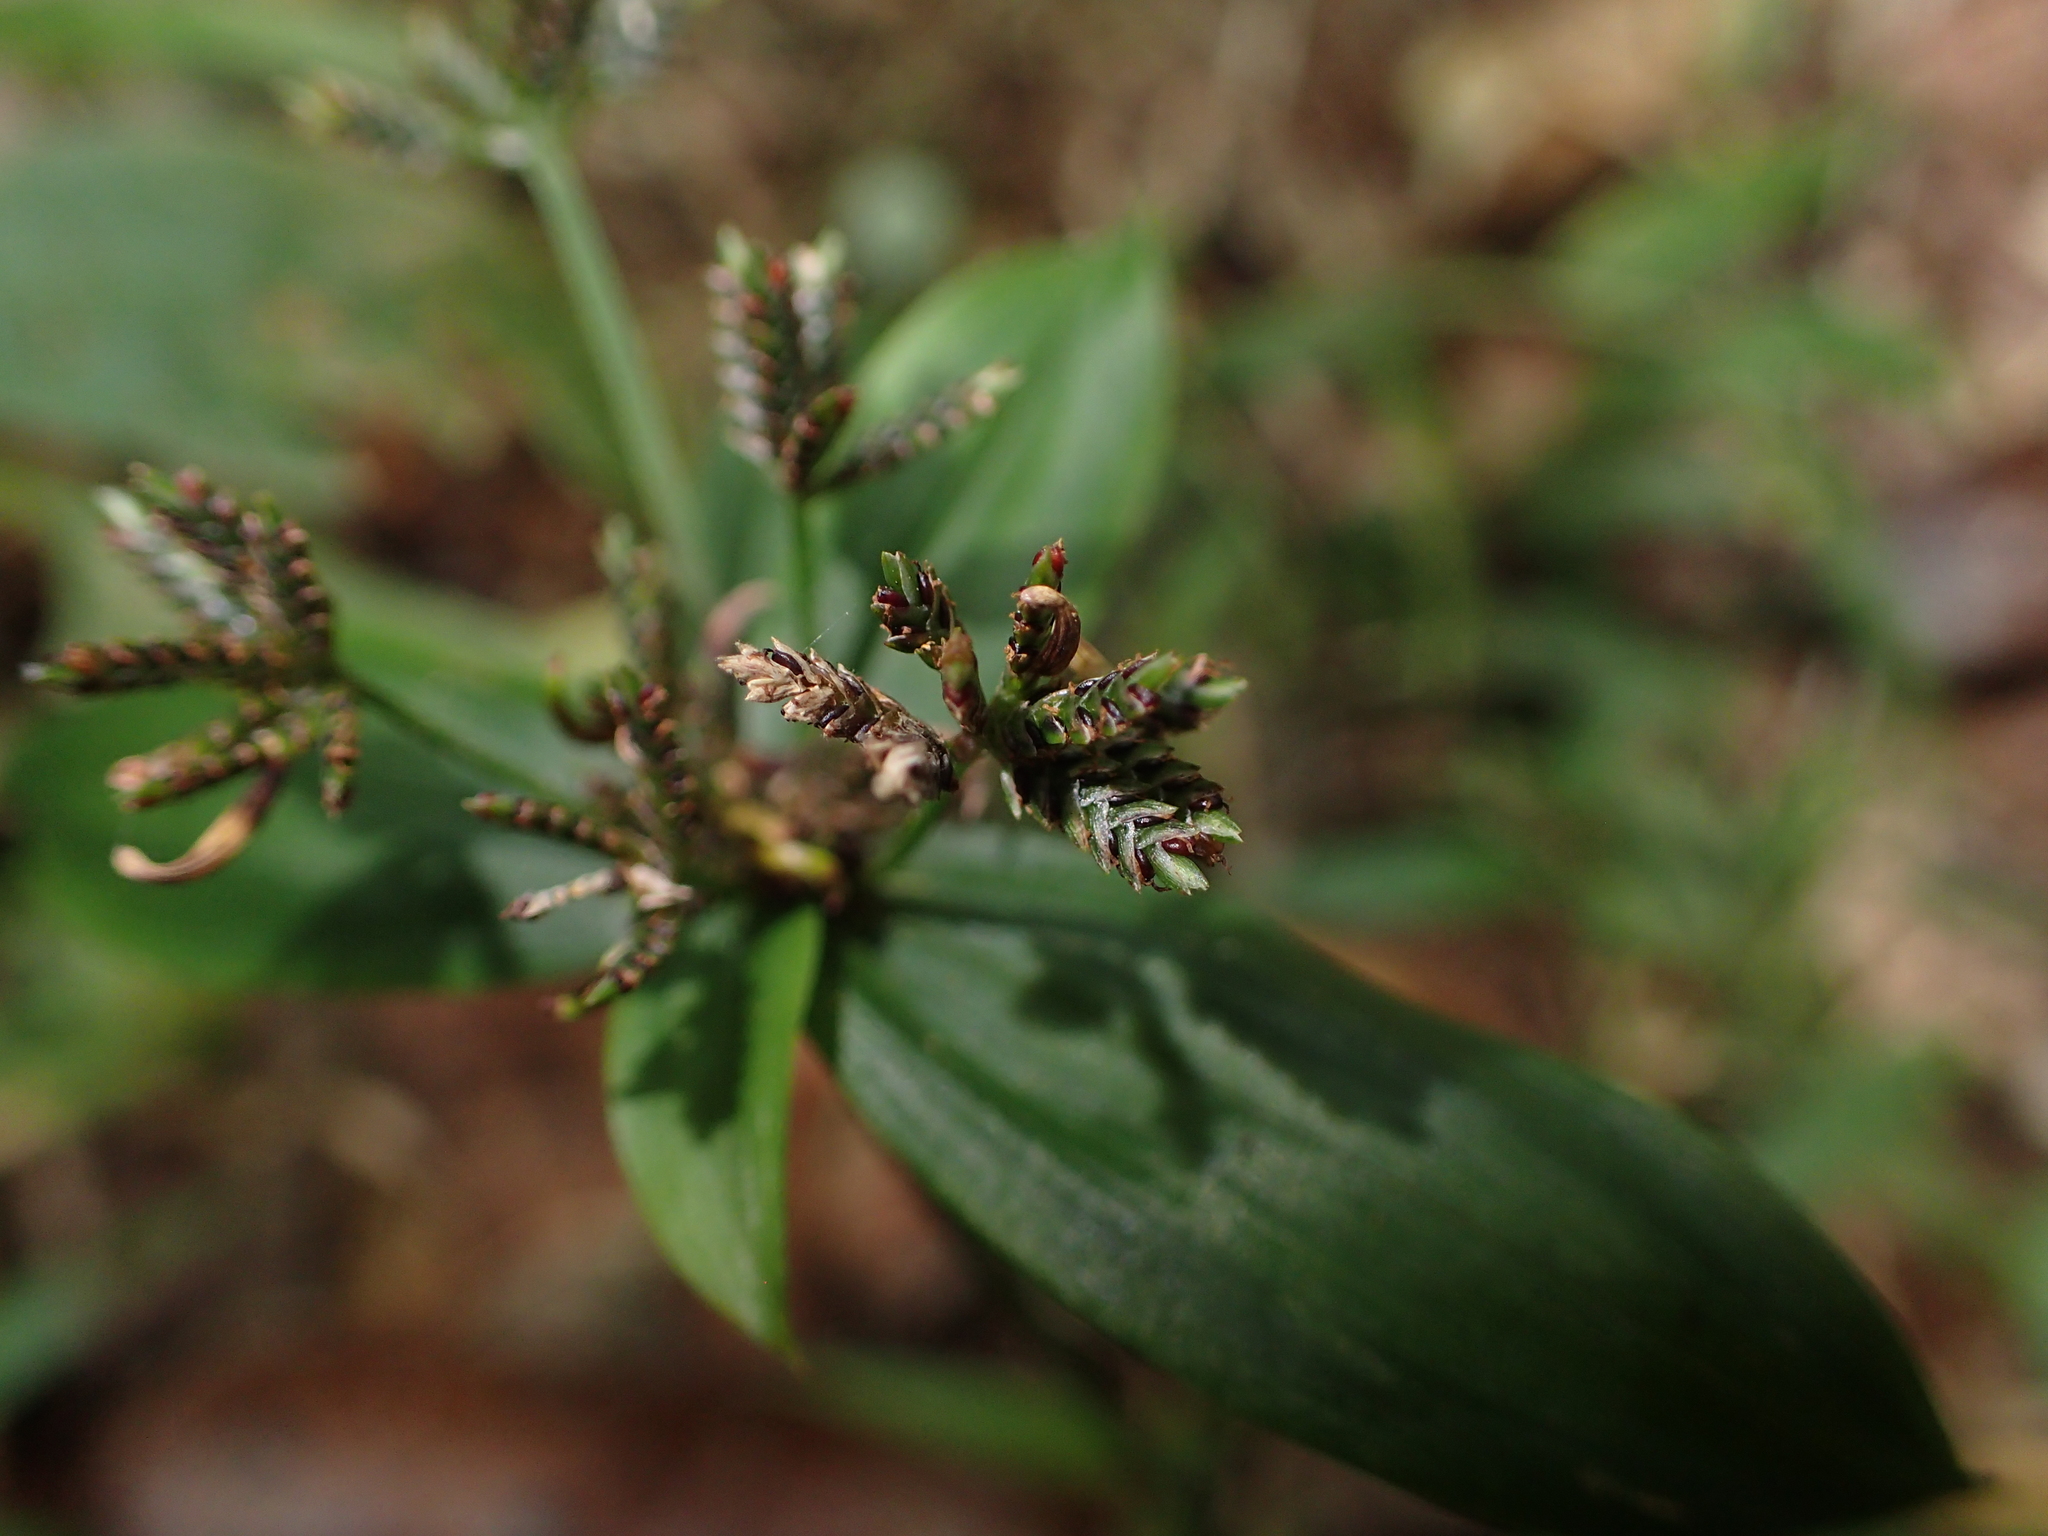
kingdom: Plantae
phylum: Tracheophyta
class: Liliopsida
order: Poales
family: Cyperaceae
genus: Cyperus
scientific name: Cyperus sciaphilus
